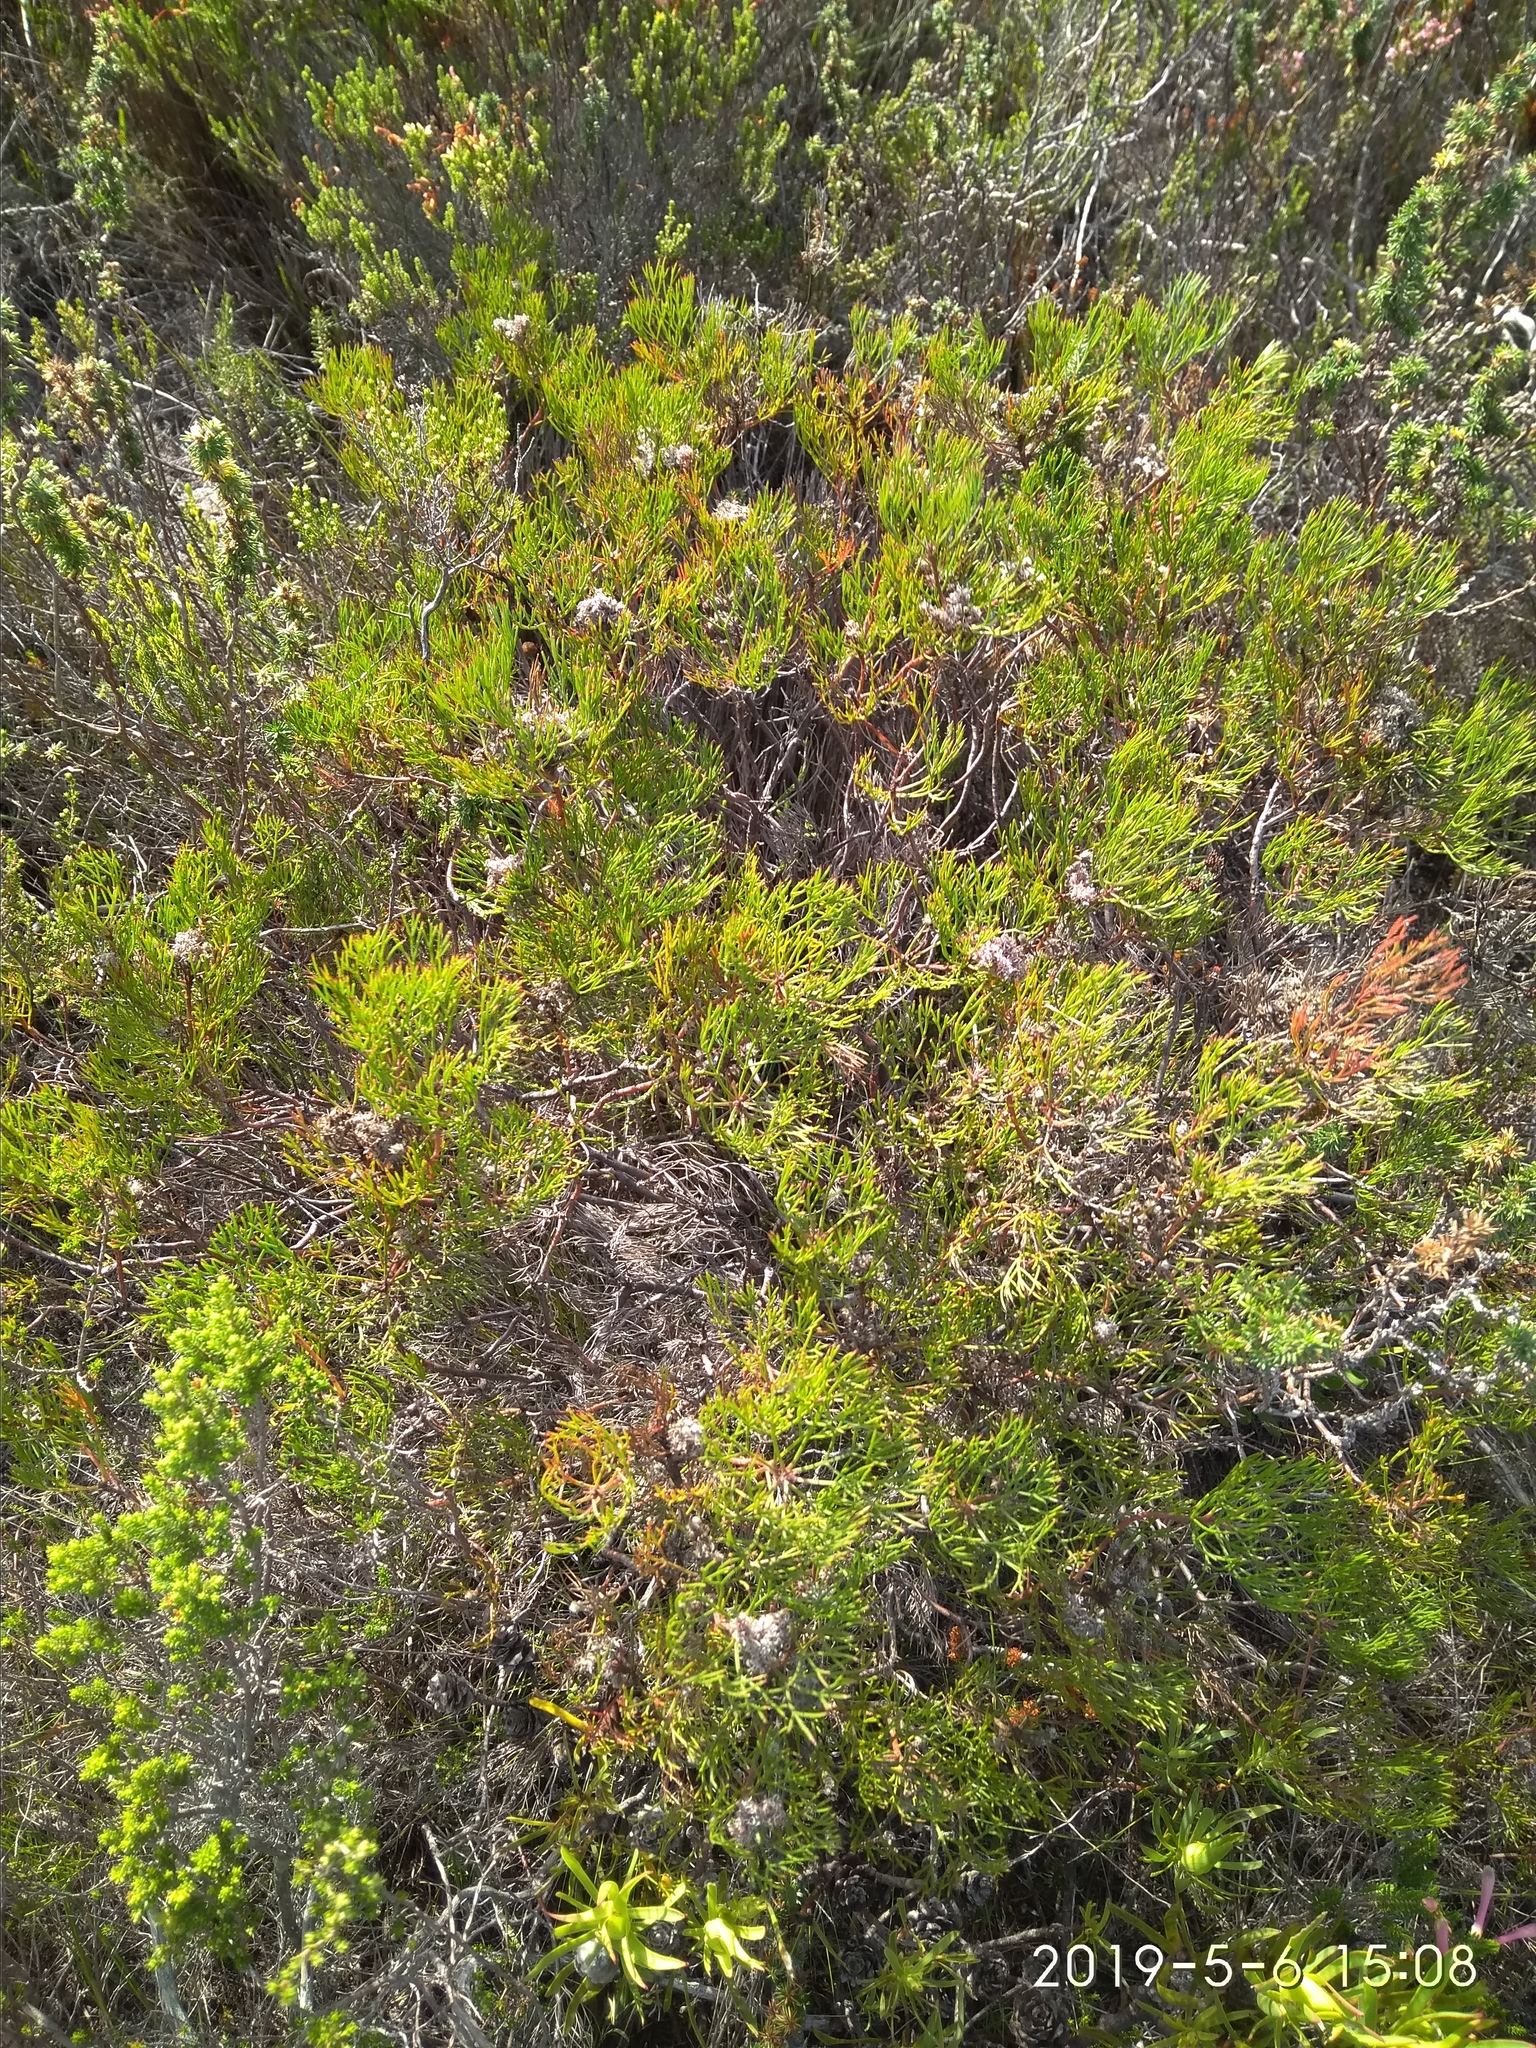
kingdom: Plantae
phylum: Tracheophyta
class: Magnoliopsida
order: Proteales
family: Proteaceae
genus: Serruria
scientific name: Serruria bolusii
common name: Agulhas spiderhead
